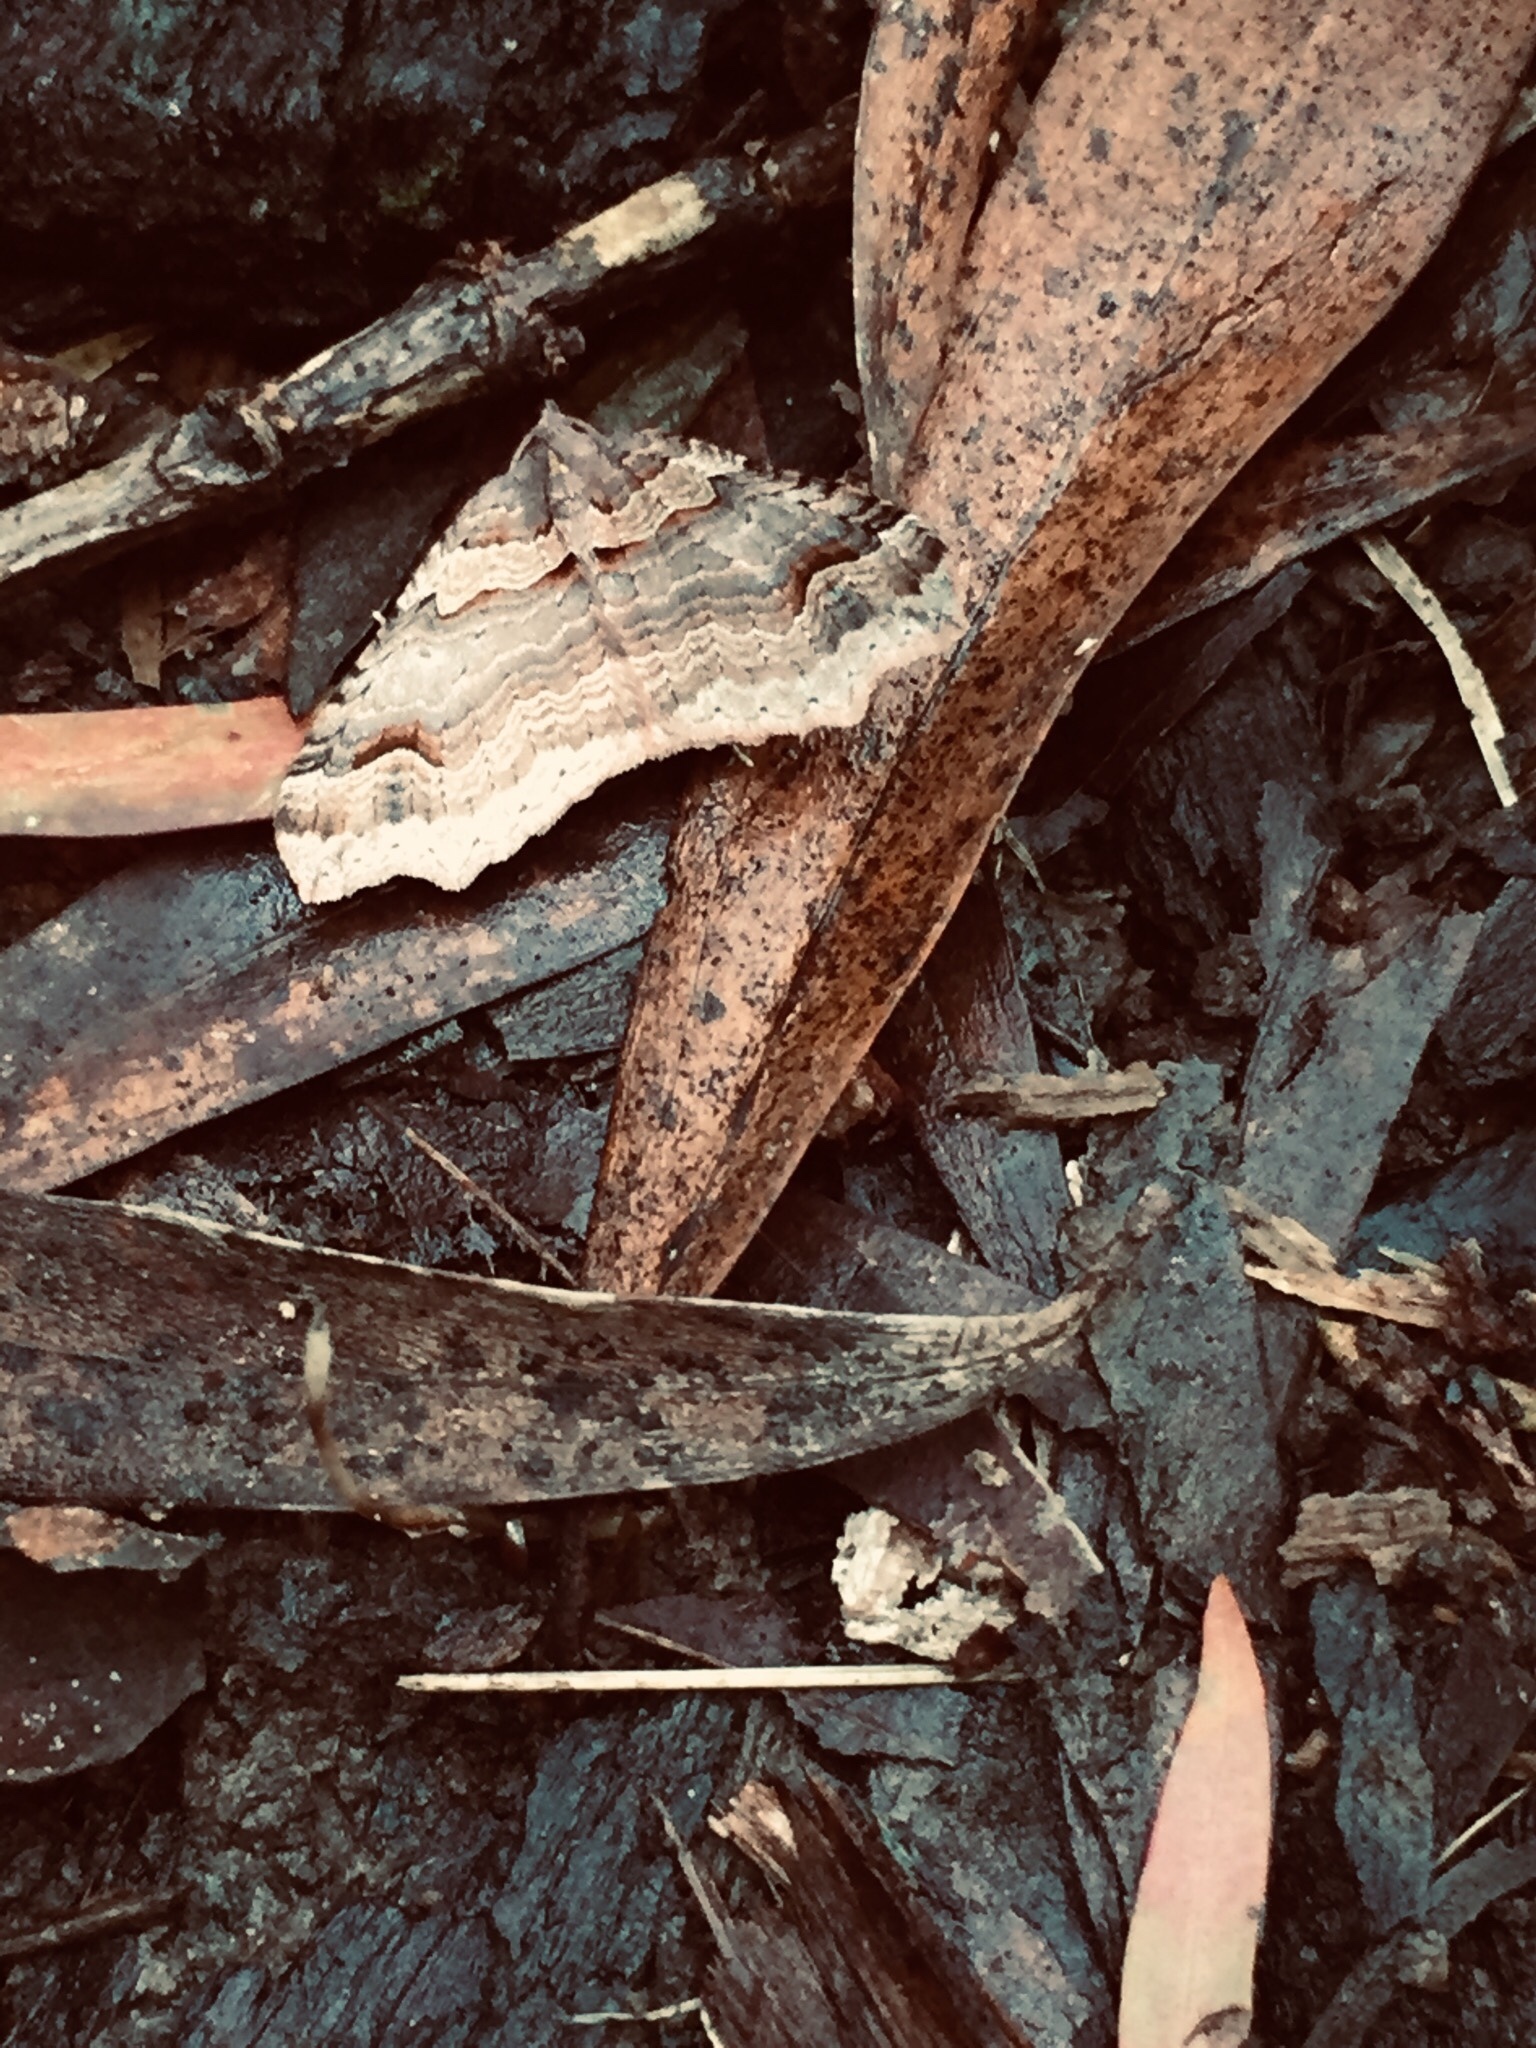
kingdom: Animalia
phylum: Arthropoda
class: Insecta
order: Lepidoptera
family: Geometridae
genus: Austrocidaria
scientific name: Austrocidaria parora
